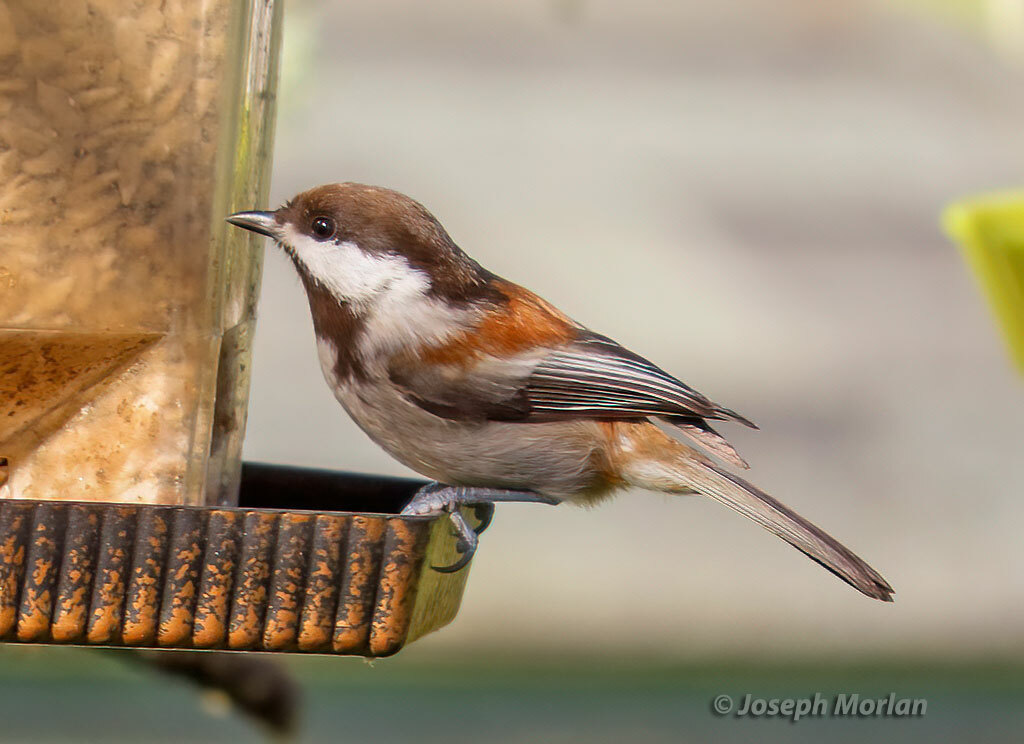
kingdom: Animalia
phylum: Chordata
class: Aves
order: Passeriformes
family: Paridae
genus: Poecile
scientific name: Poecile rufescens
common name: Chestnut-backed chickadee
